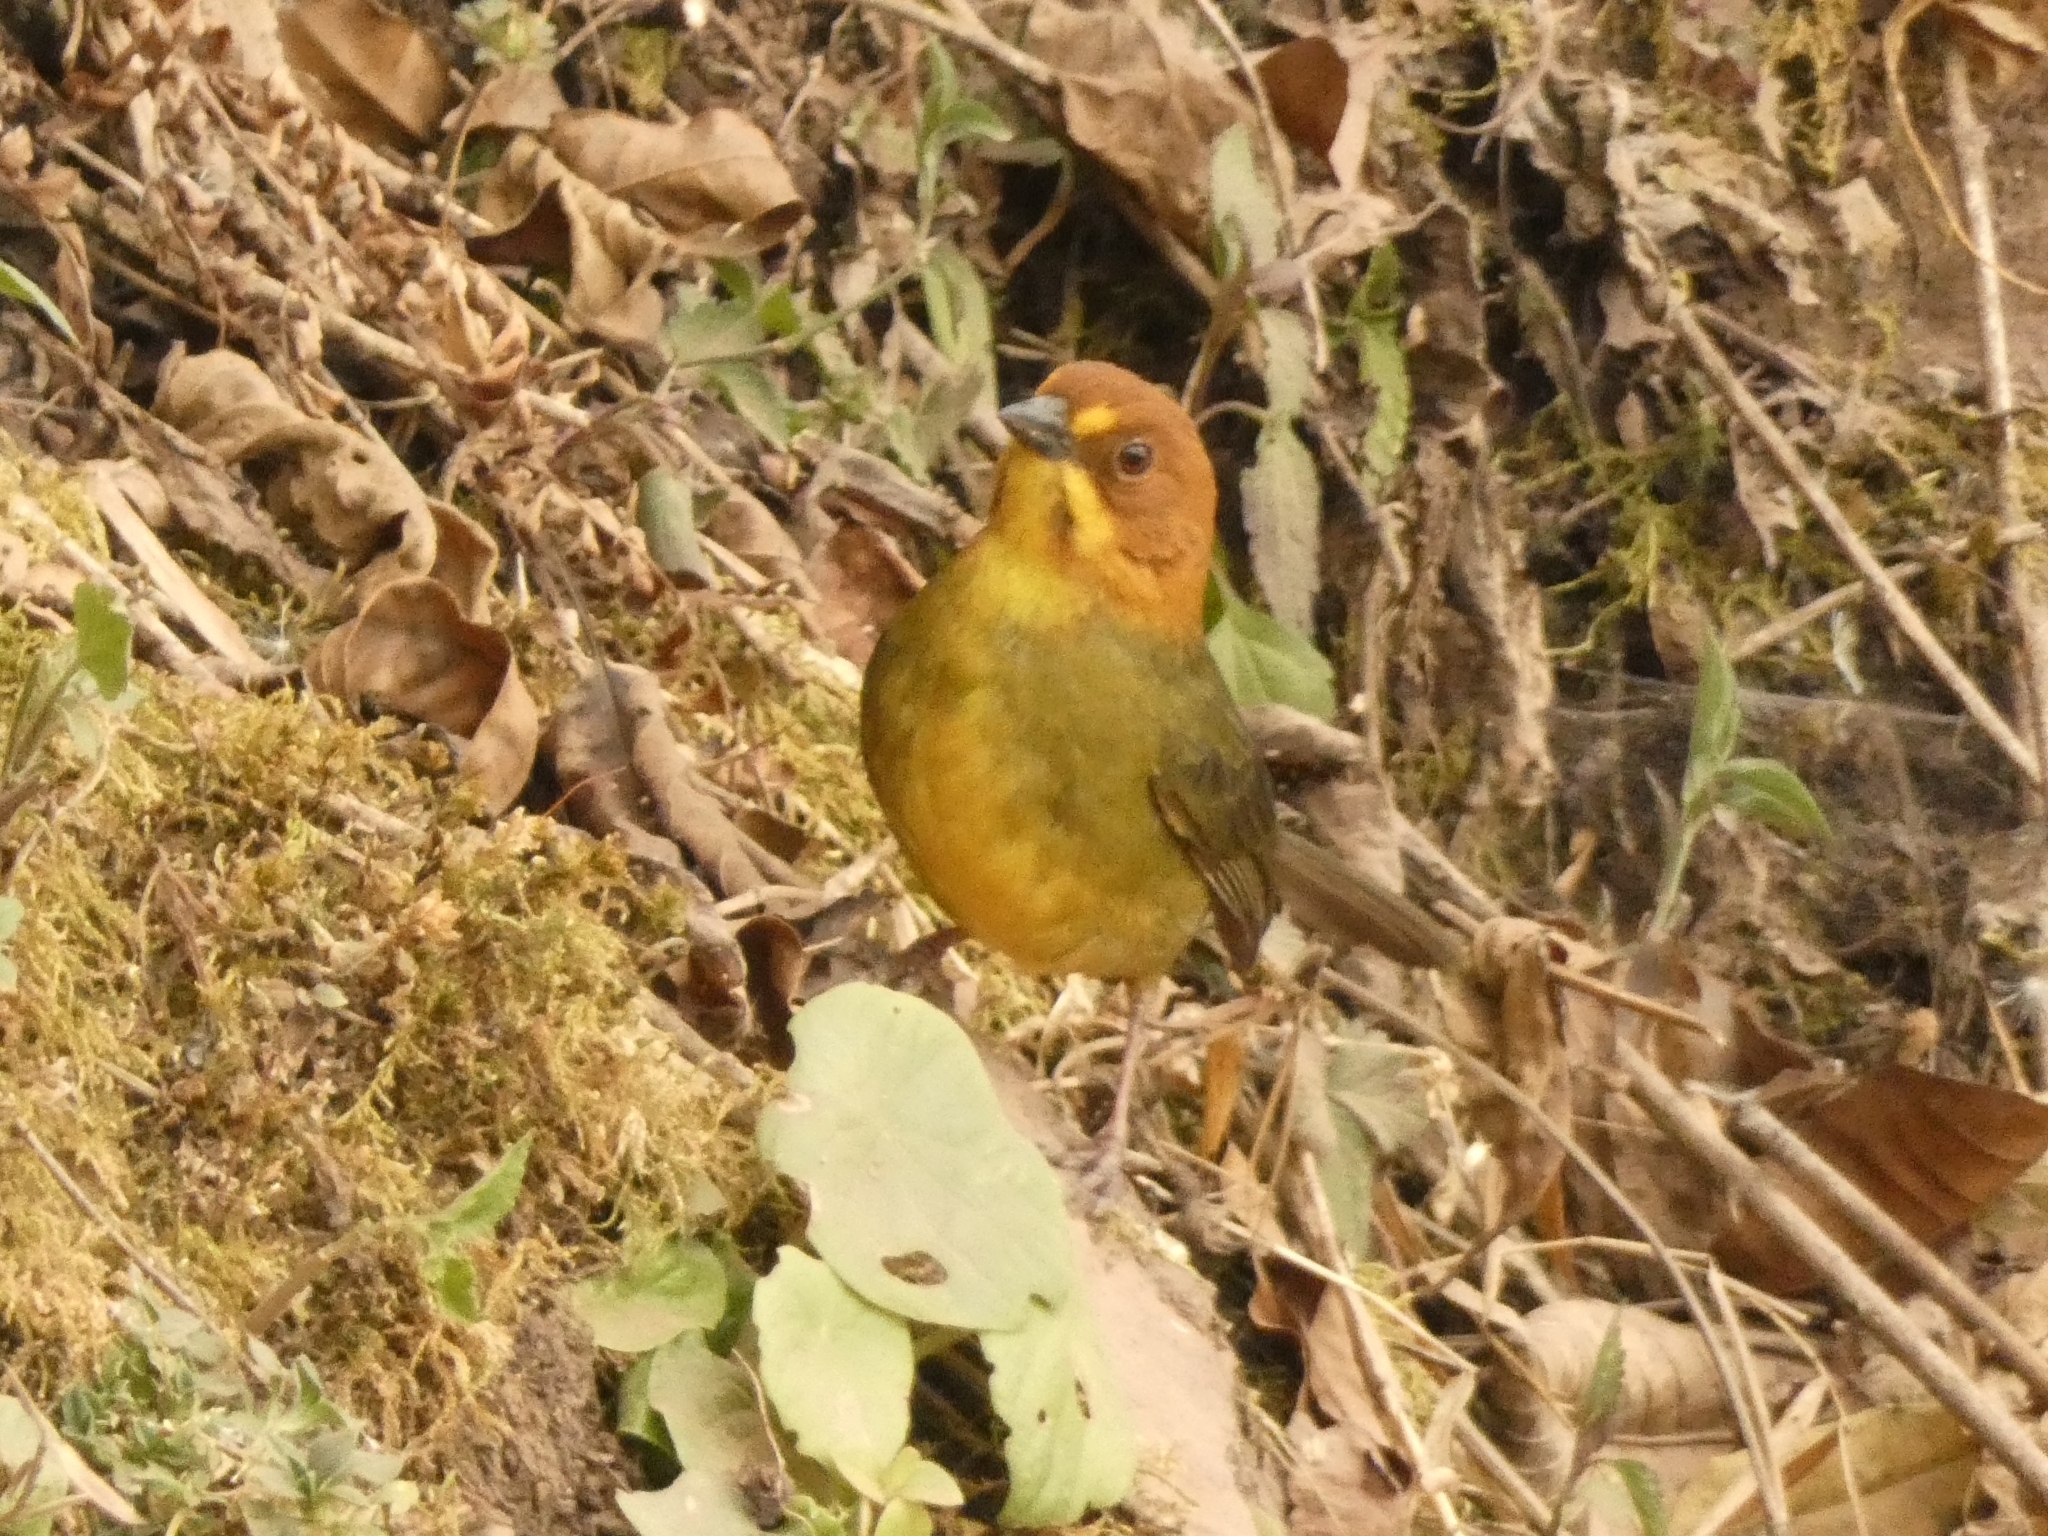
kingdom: Animalia
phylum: Chordata
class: Aves
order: Passeriformes
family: Passerellidae
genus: Atlapetes
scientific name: Atlapetes fulviceps
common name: Fulvous-headed brushfinch
